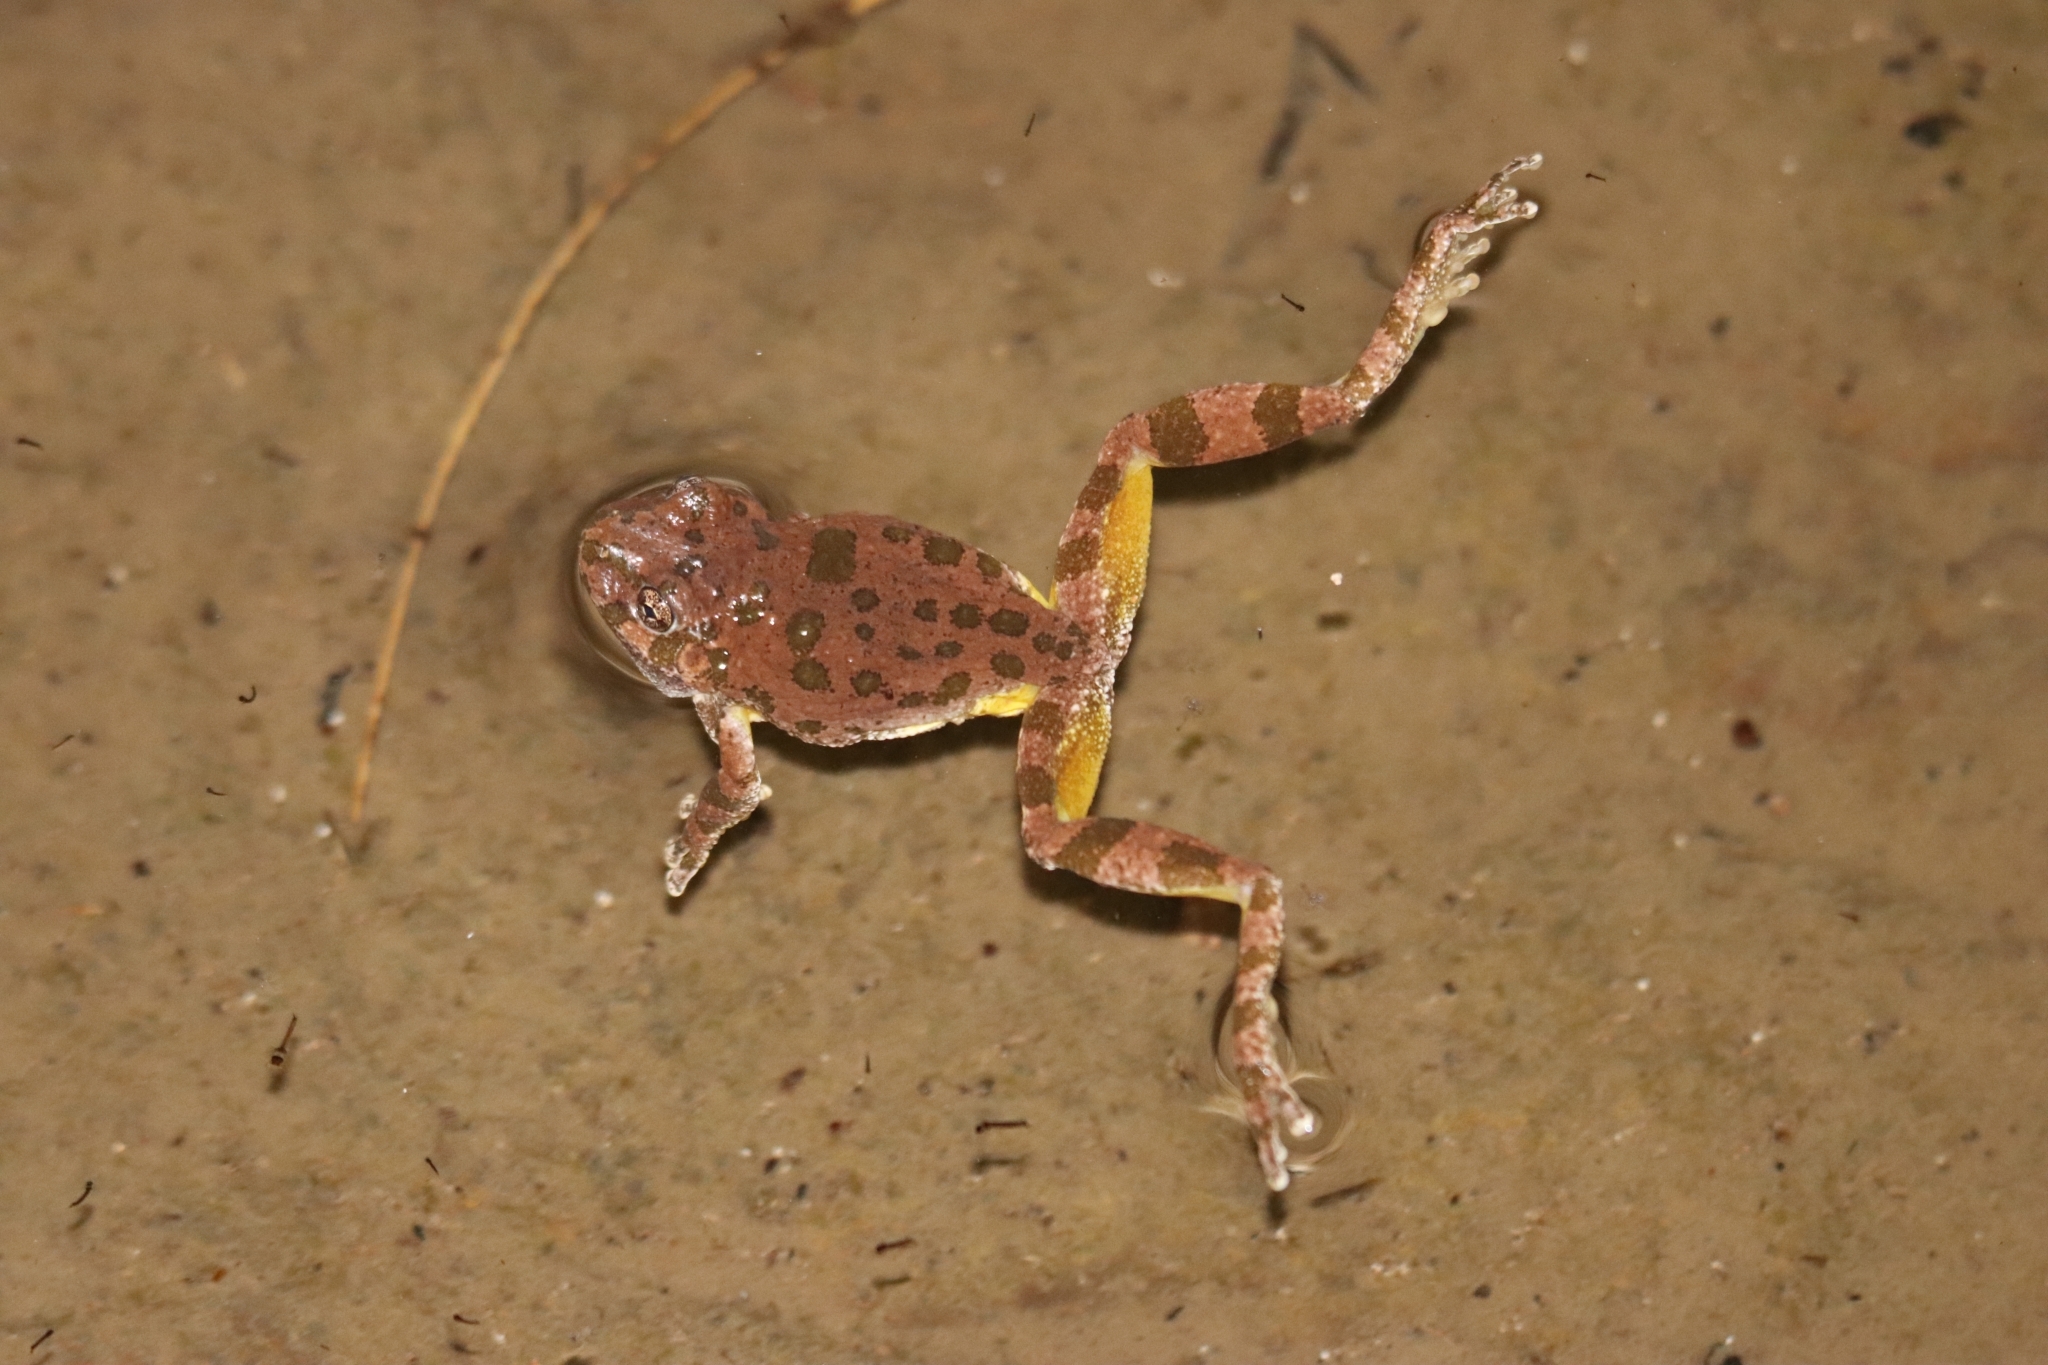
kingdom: Animalia
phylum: Chordata
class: Amphibia
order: Anura
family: Hylidae
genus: Dryophytes
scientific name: Dryophytes arenicolor
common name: Canyon treefrog
